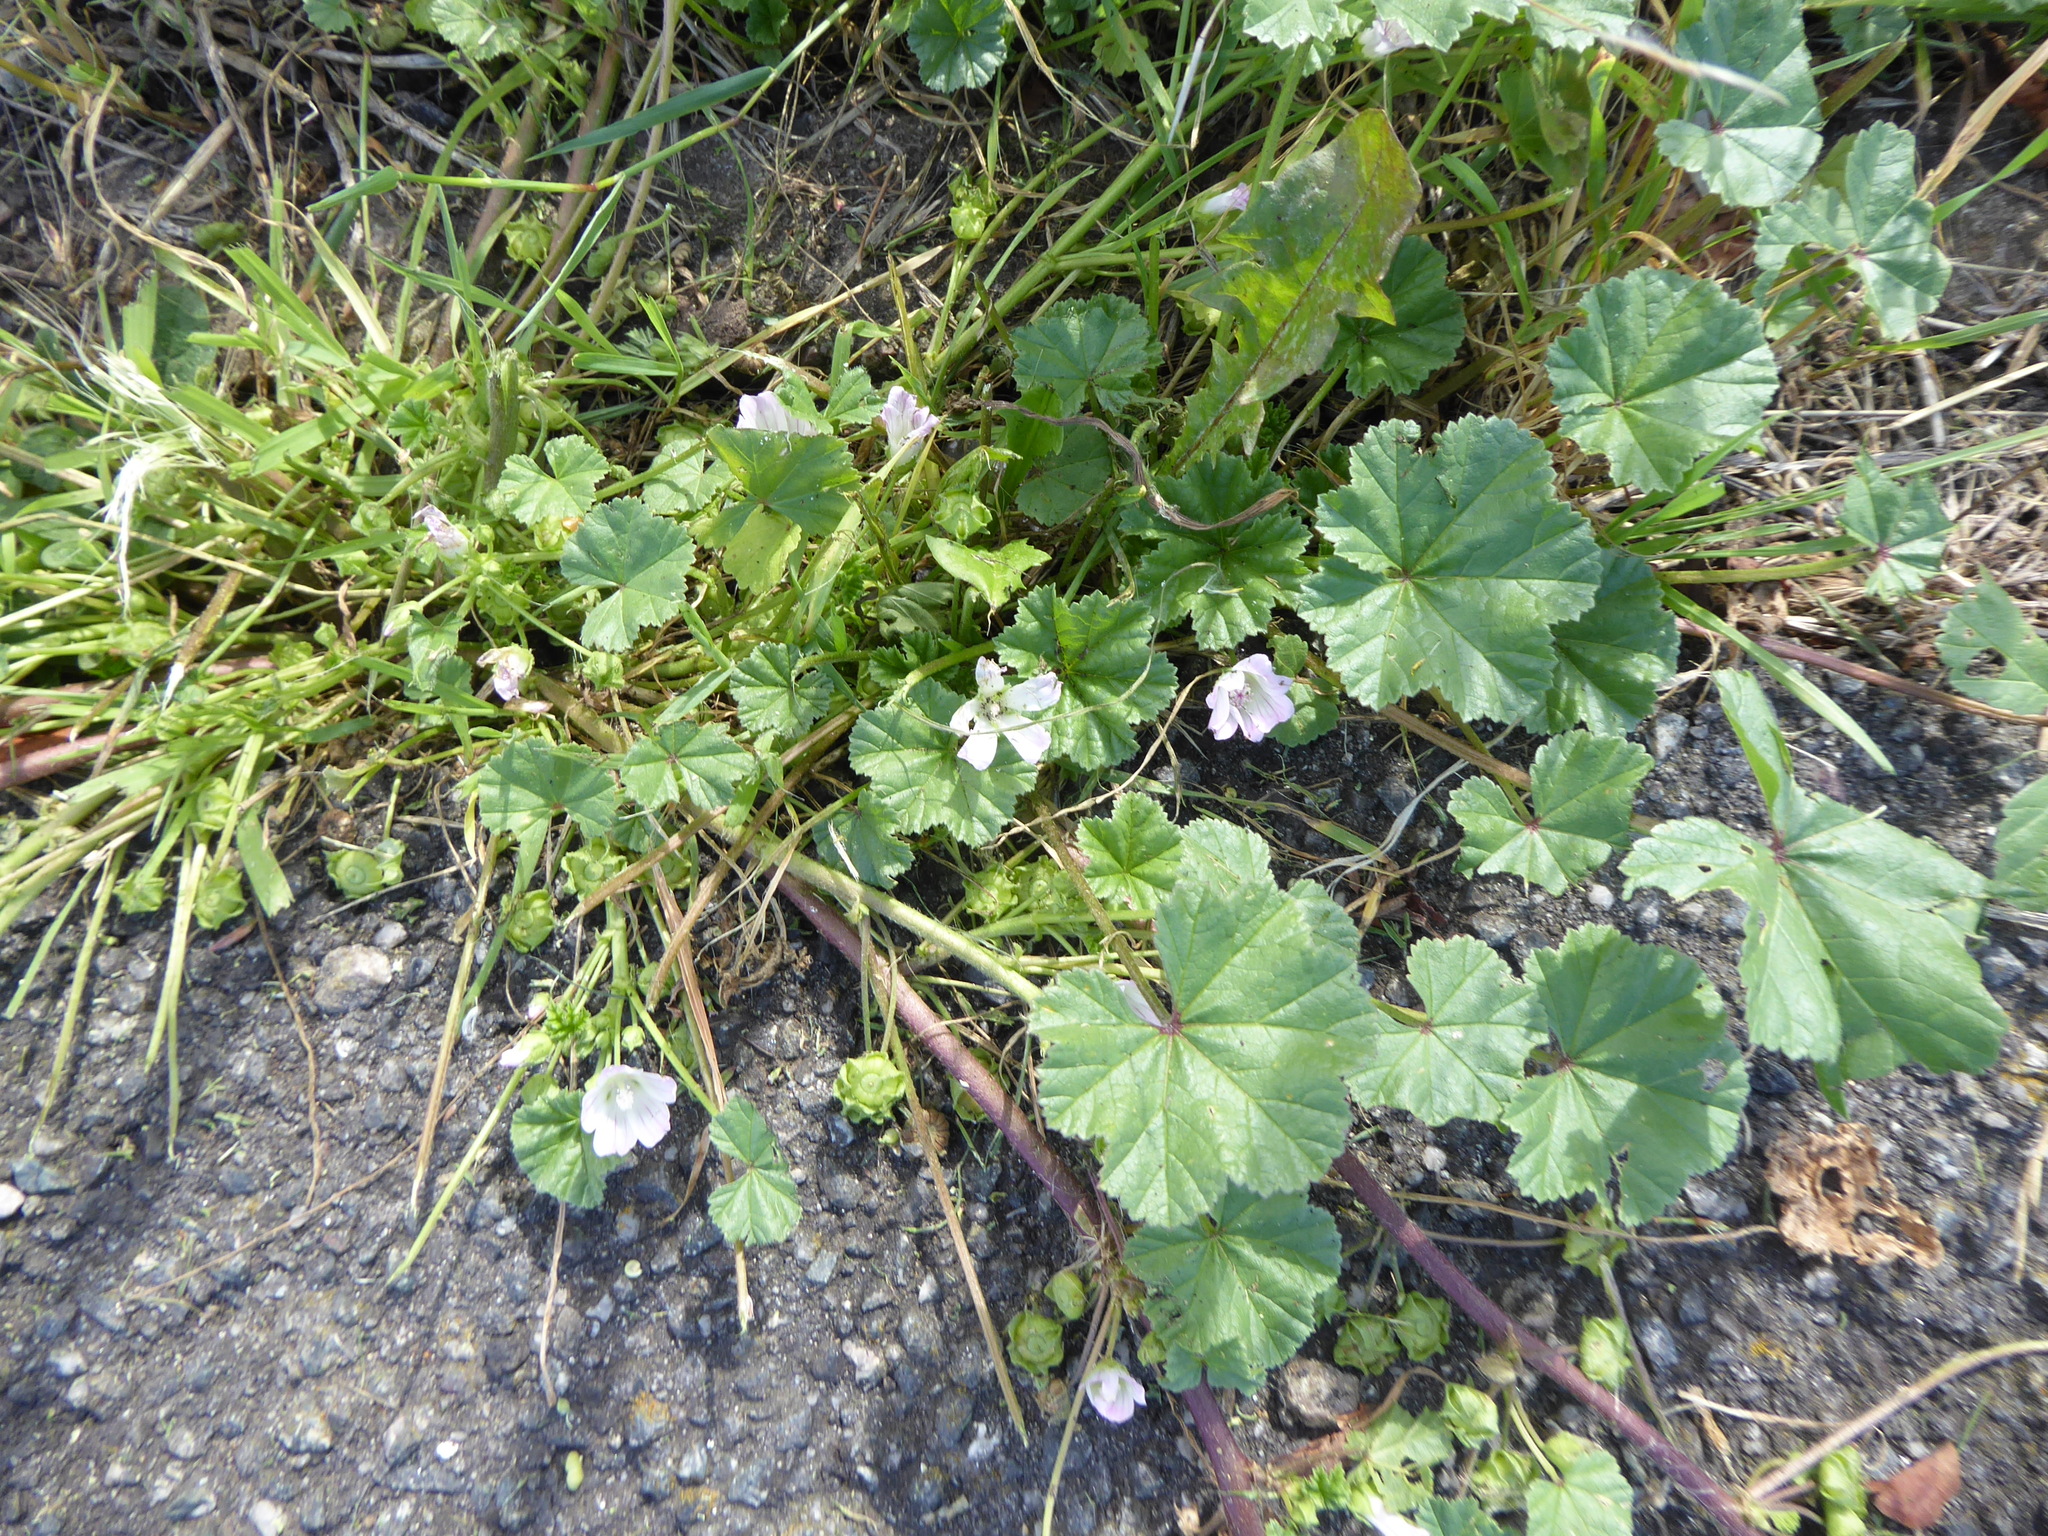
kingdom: Plantae
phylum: Tracheophyta
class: Magnoliopsida
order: Malvales
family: Malvaceae
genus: Malva
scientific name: Malva neglecta
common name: Common mallow
